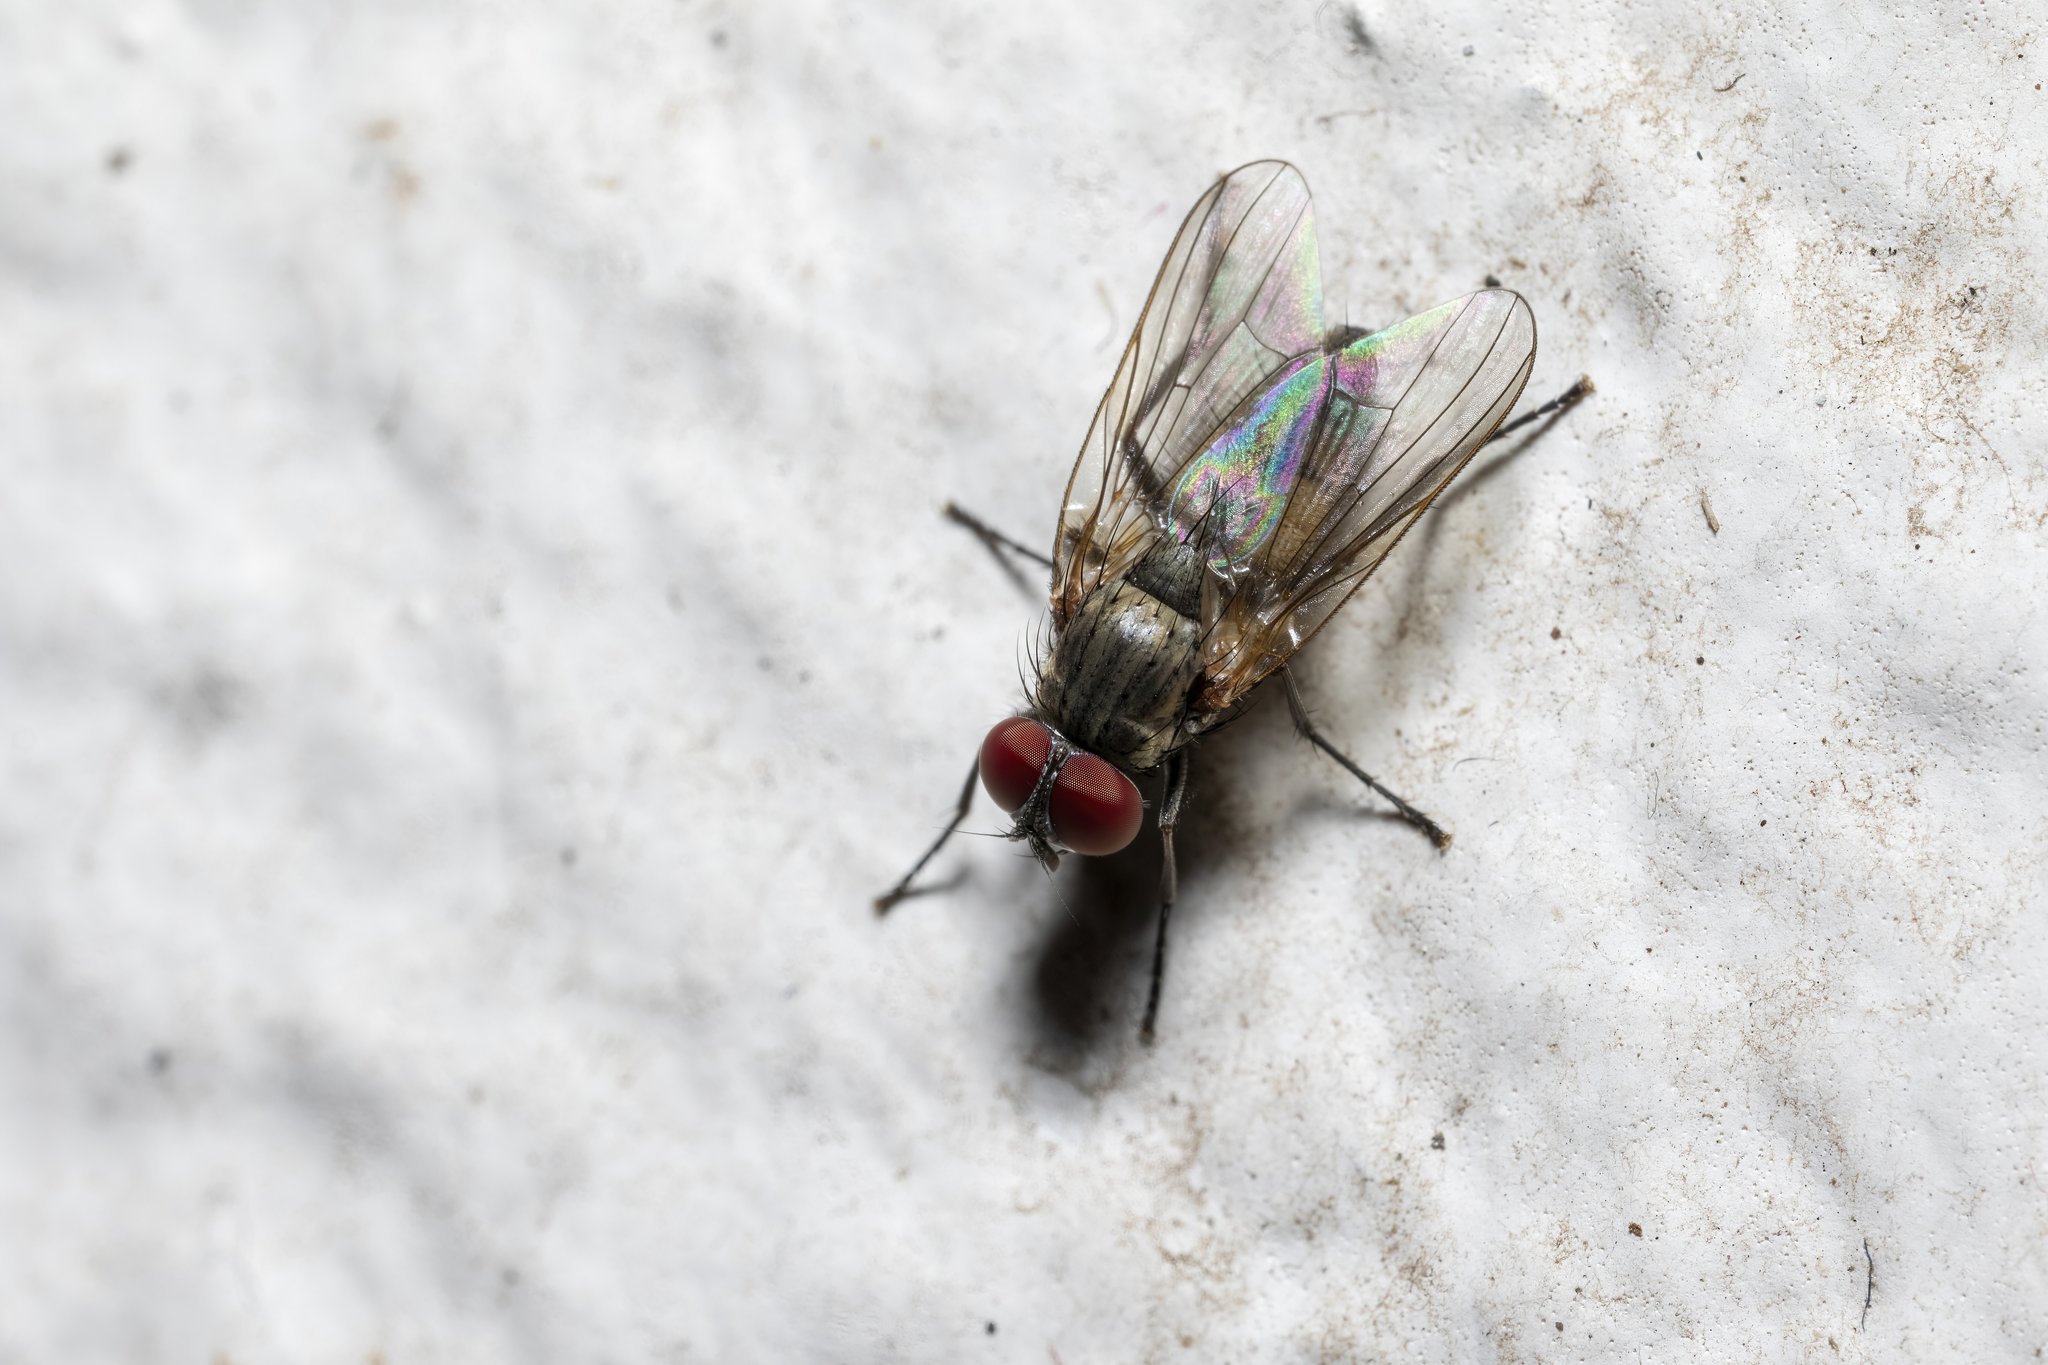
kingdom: Animalia
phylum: Arthropoda
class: Insecta
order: Diptera
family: Fanniidae
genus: Fannia
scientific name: Fannia canicularis
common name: Little house fly
